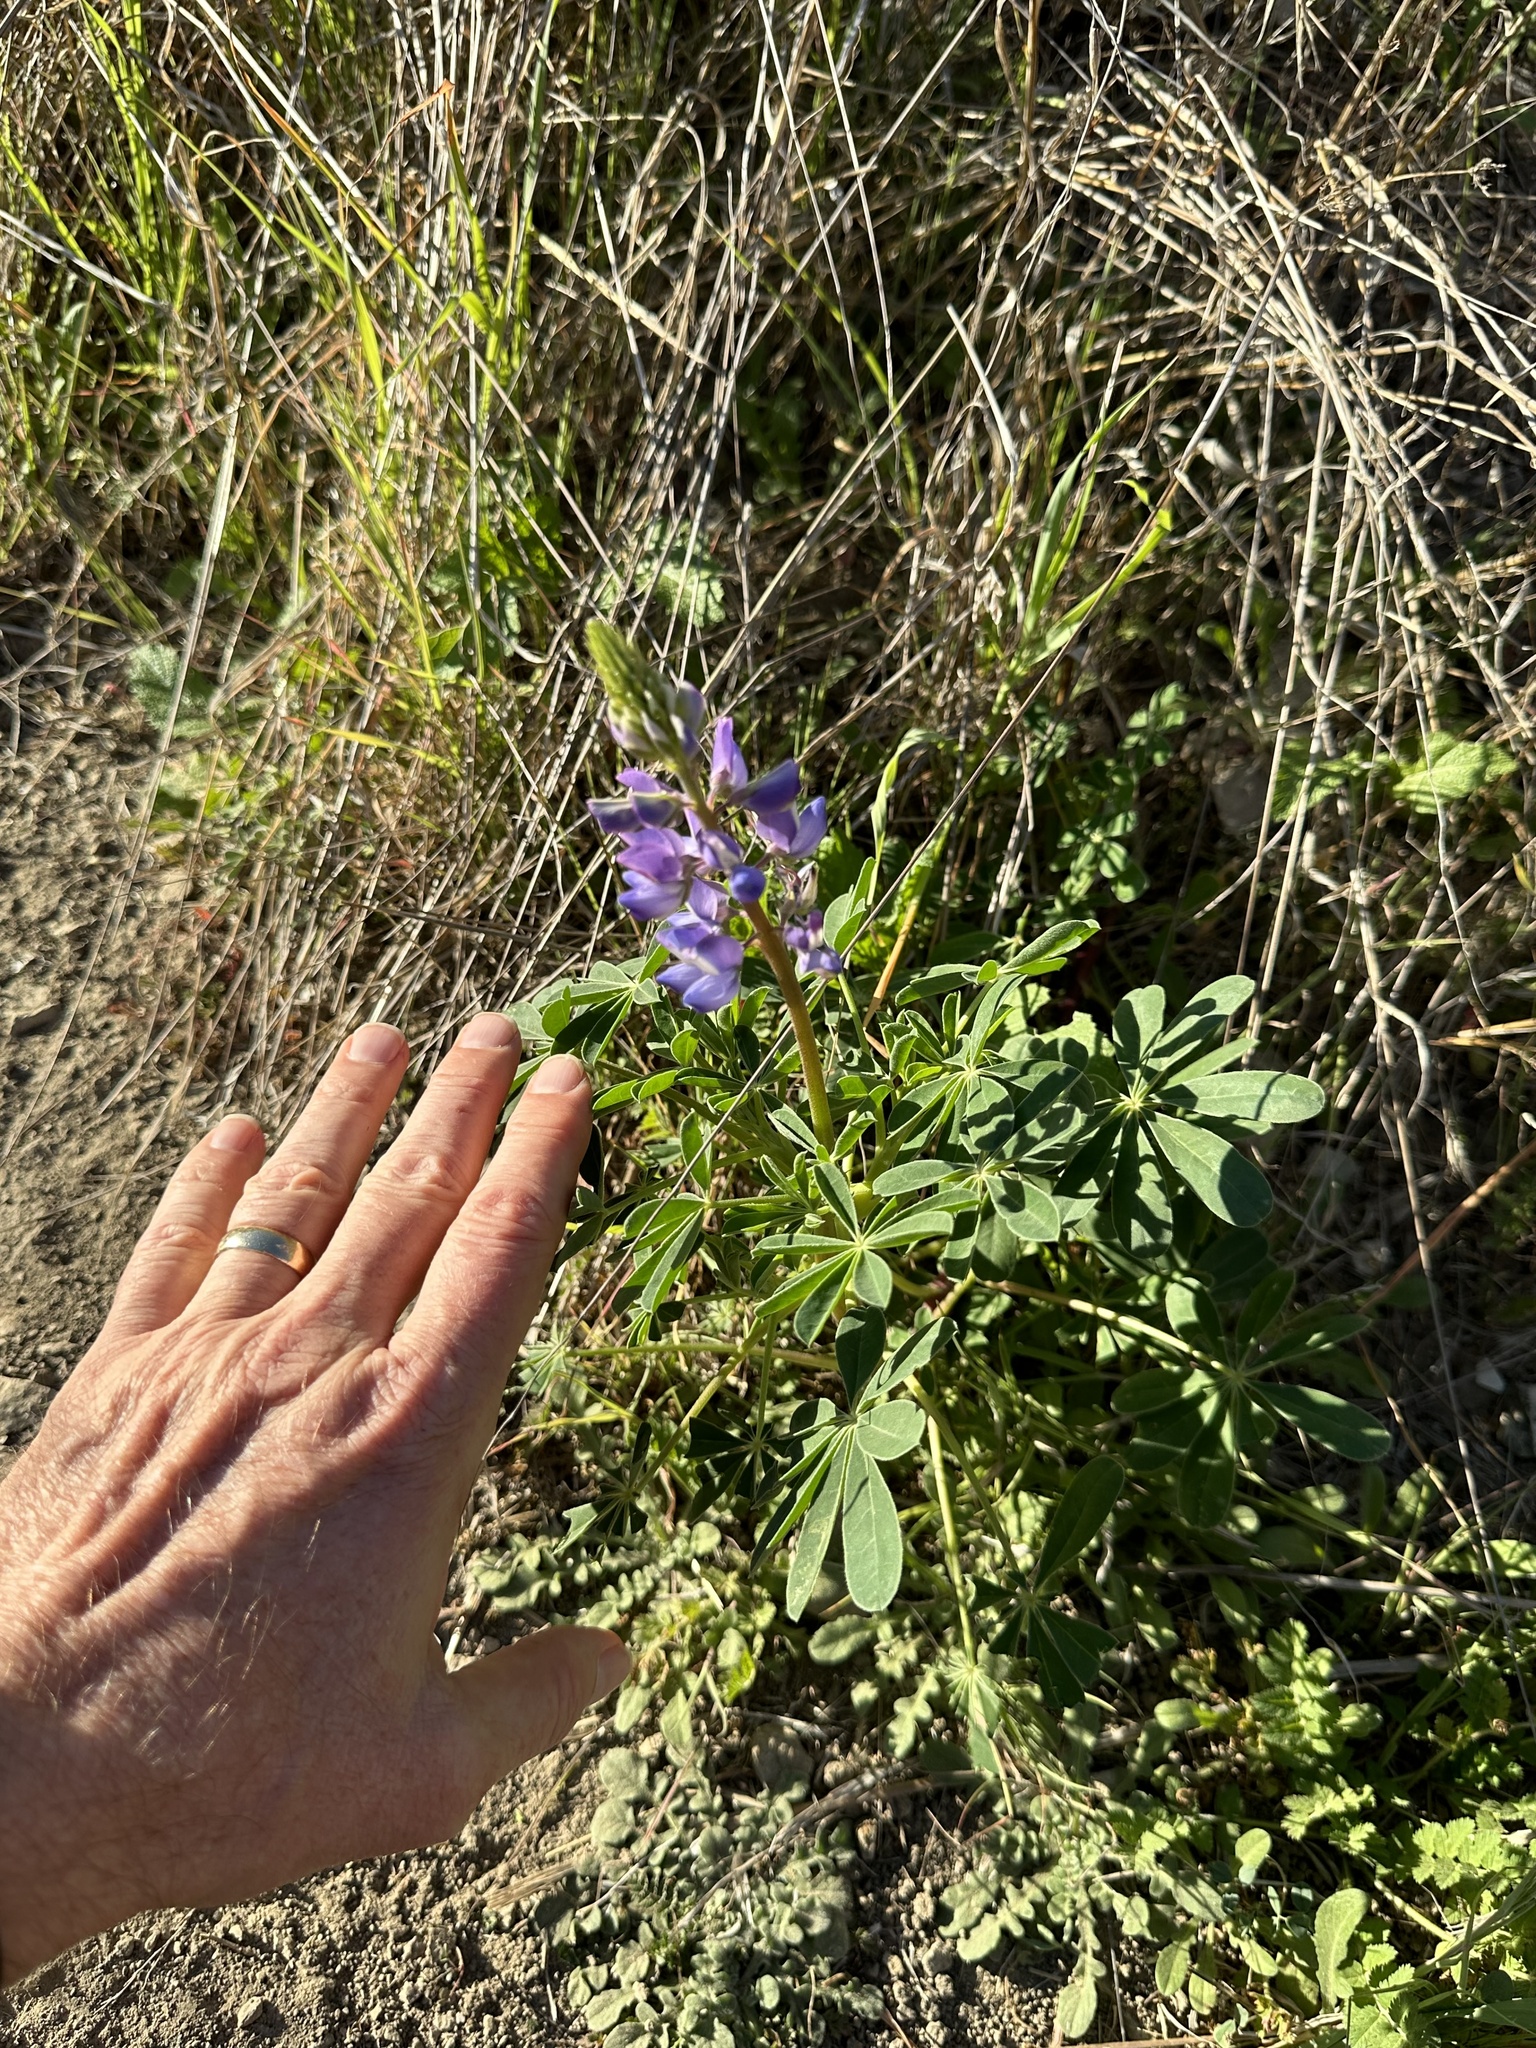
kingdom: Plantae
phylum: Tracheophyta
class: Magnoliopsida
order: Fabales
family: Fabaceae
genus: Lupinus
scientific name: Lupinus succulentus
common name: Arroyo lupine
